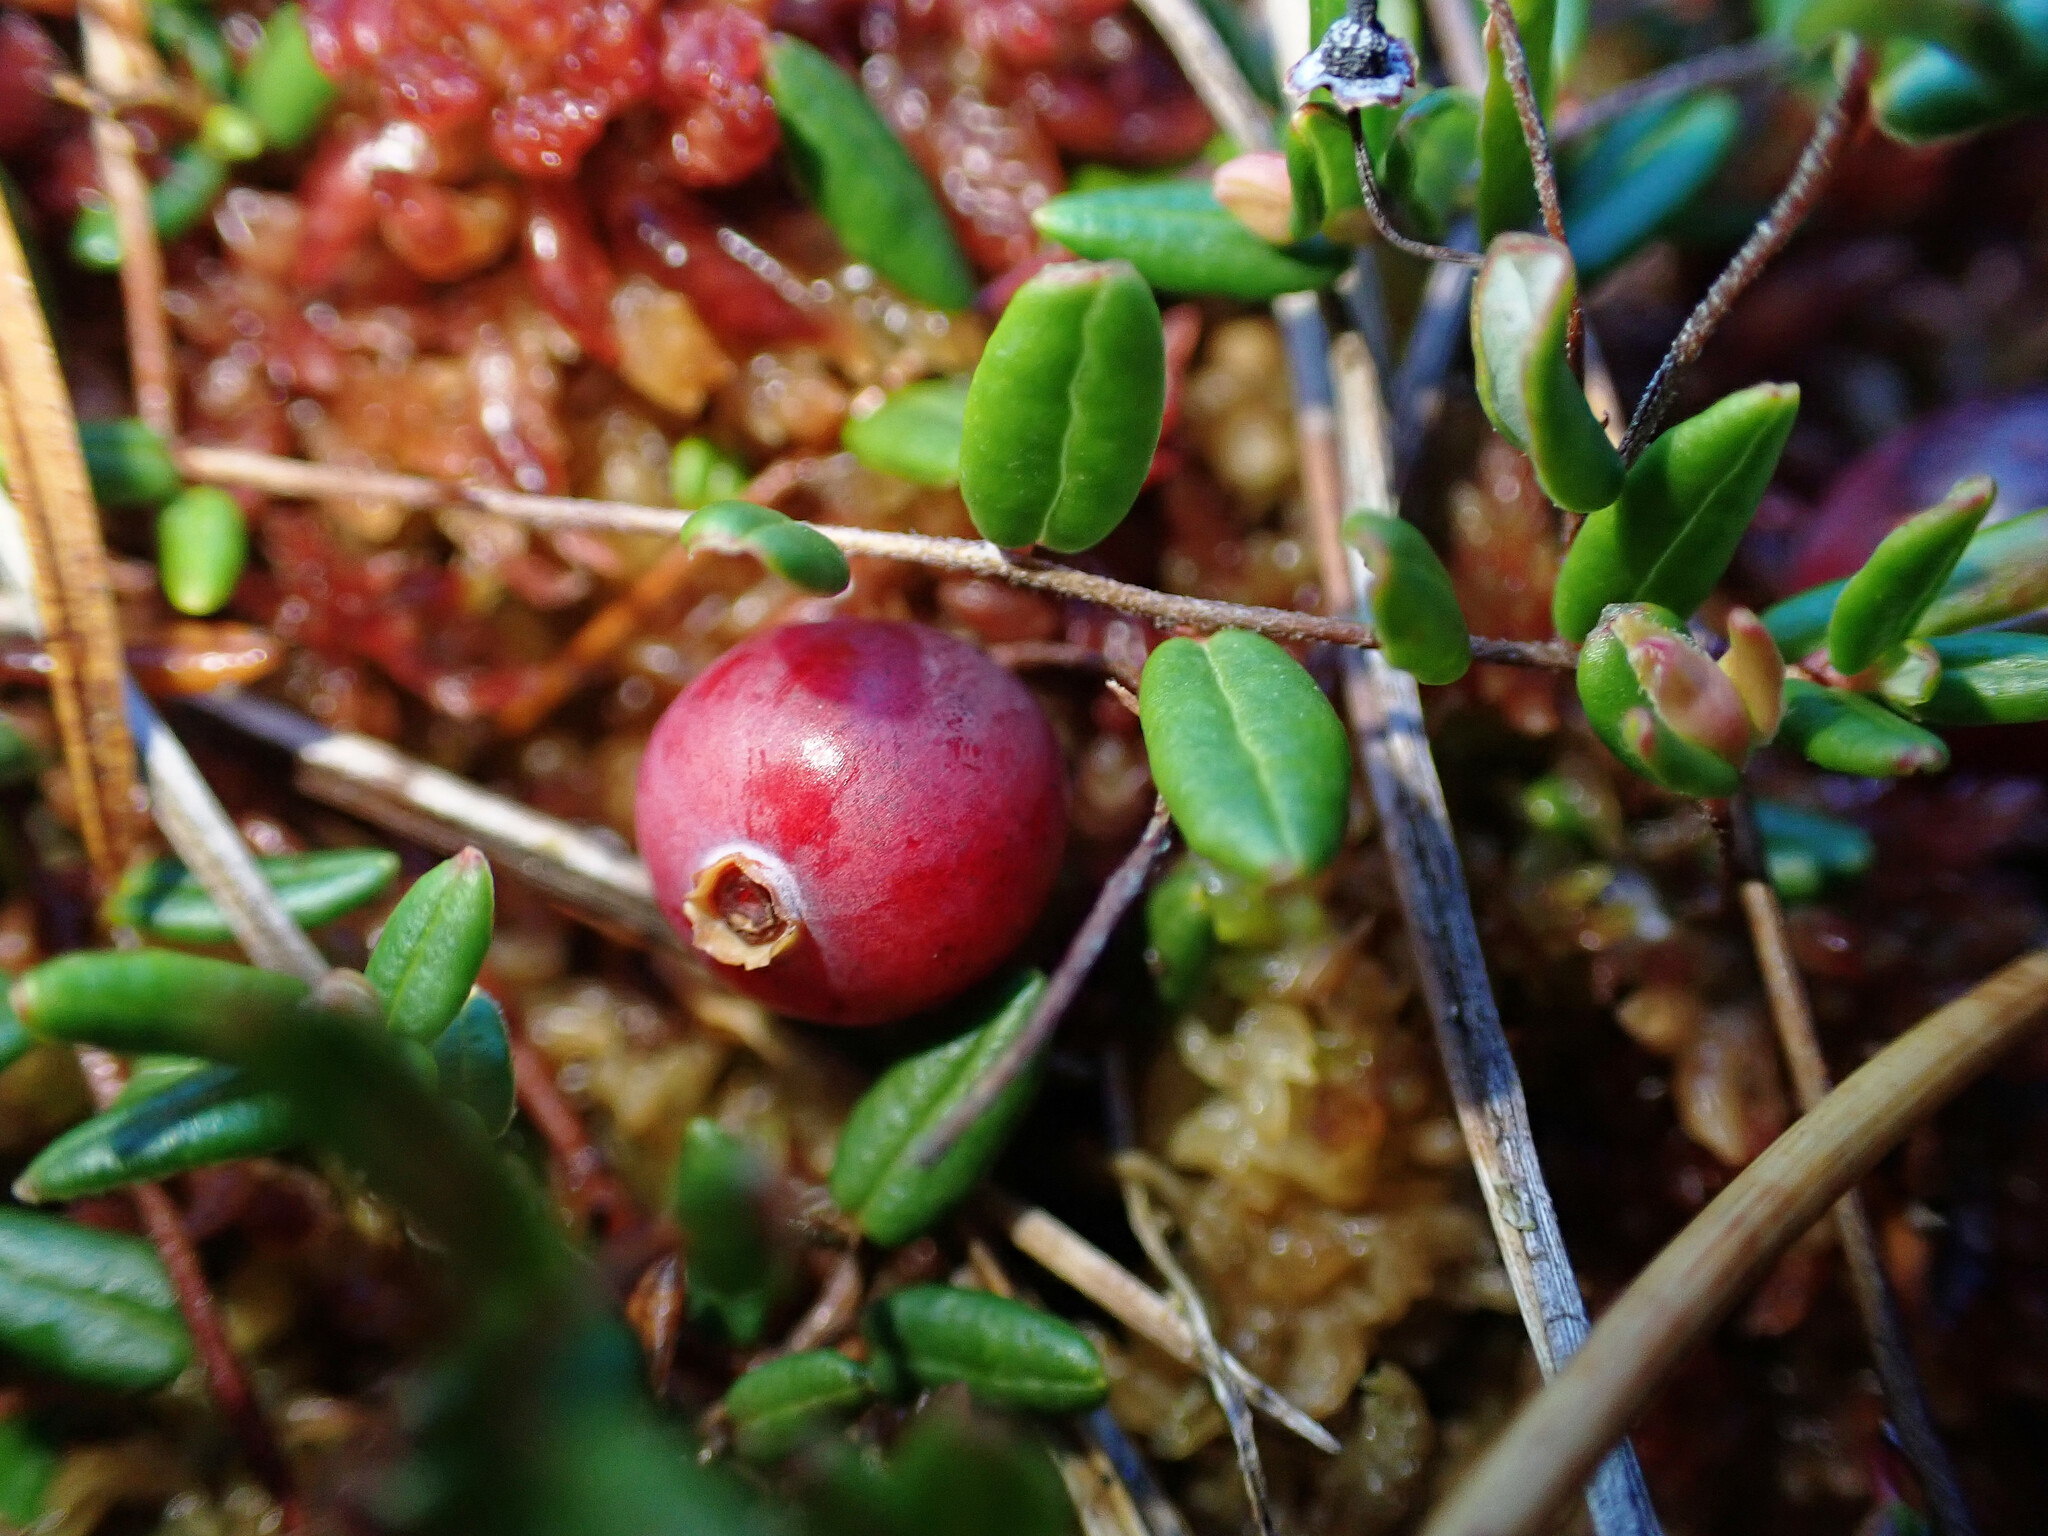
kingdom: Plantae
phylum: Tracheophyta
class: Magnoliopsida
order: Ericales
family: Ericaceae
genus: Vaccinium
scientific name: Vaccinium oxycoccos
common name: Cranberry
